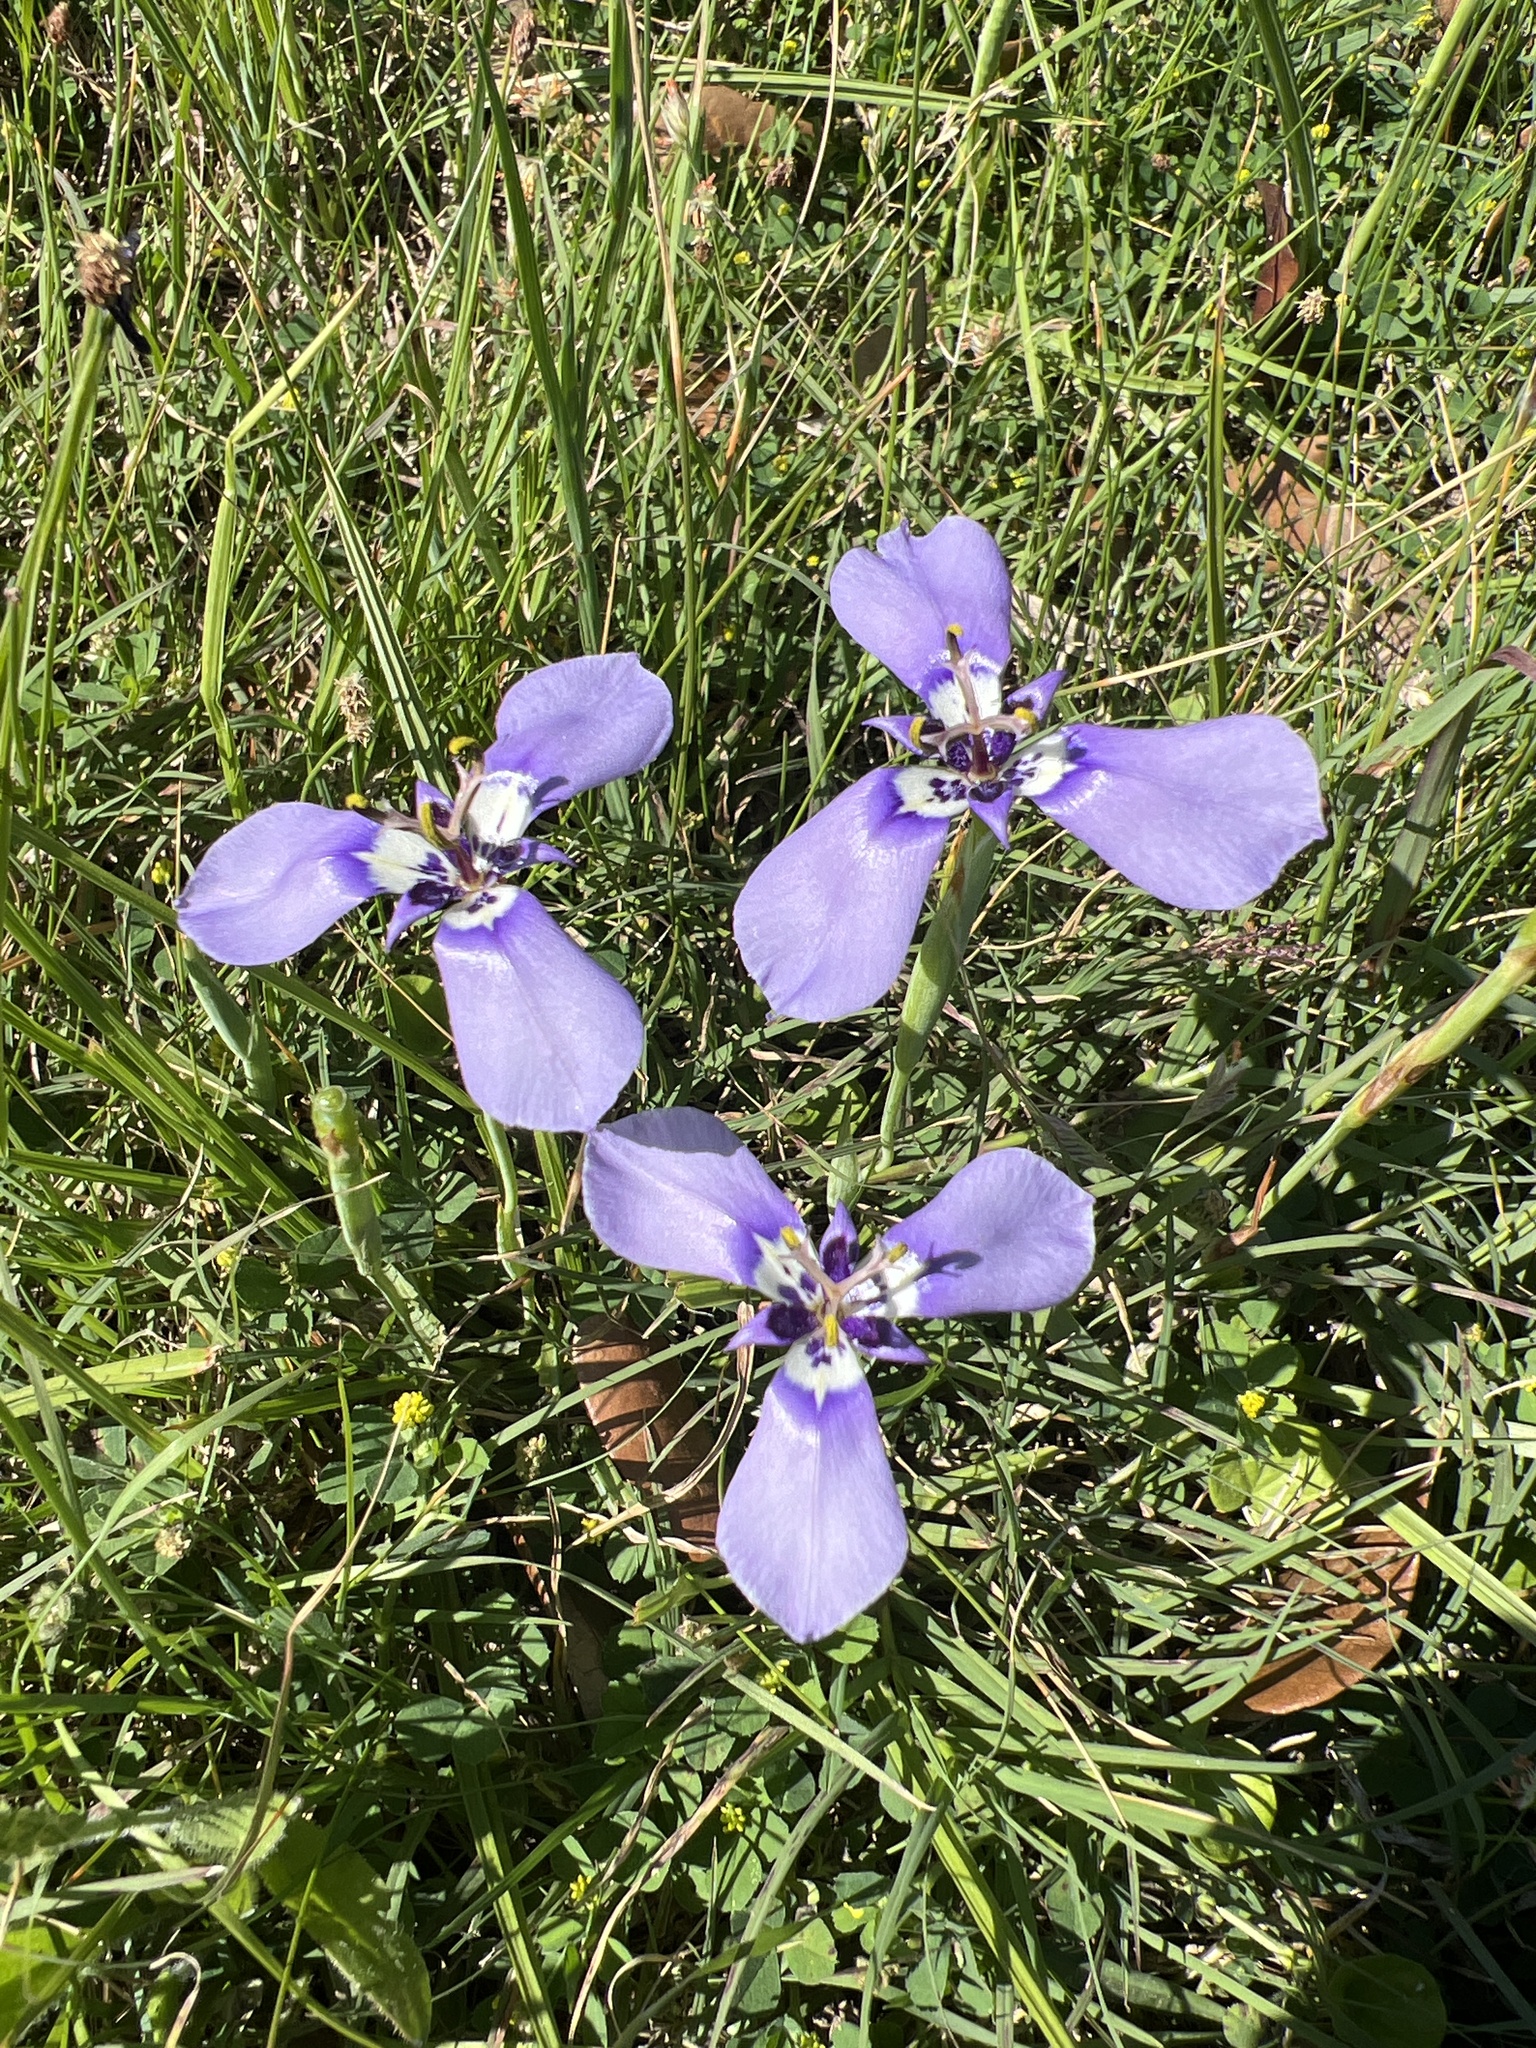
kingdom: Plantae
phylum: Tracheophyta
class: Liliopsida
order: Asparagales
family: Iridaceae
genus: Herbertia
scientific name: Herbertia lahue
